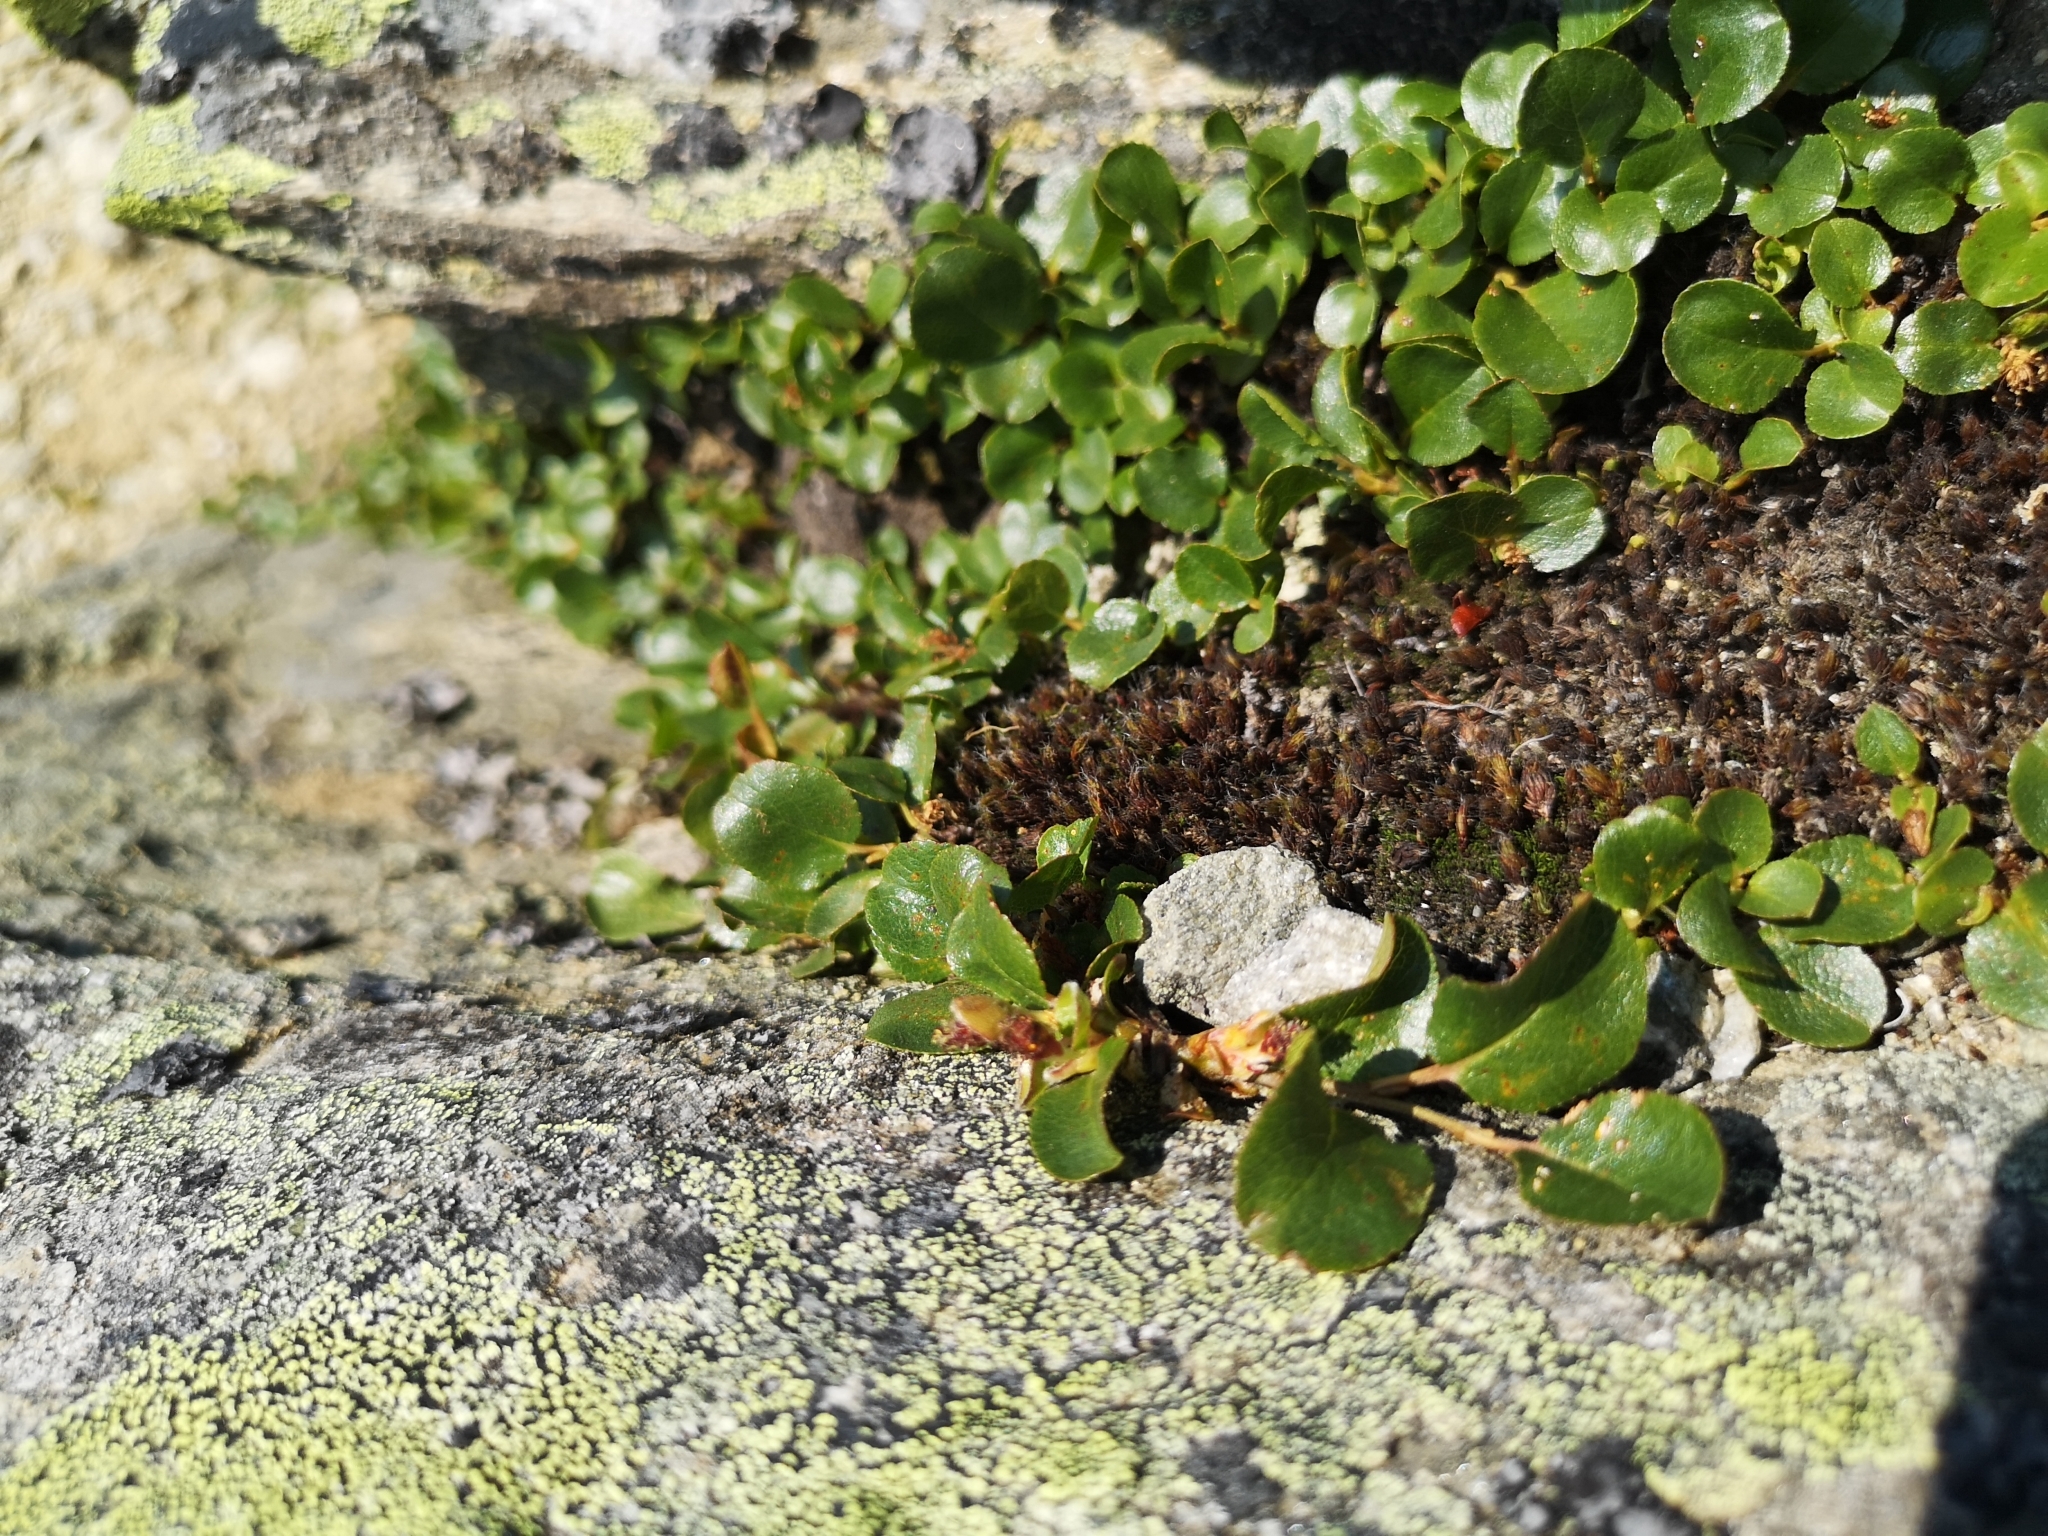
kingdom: Plantae
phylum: Tracheophyta
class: Magnoliopsida
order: Malpighiales
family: Salicaceae
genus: Salix
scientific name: Salix herbacea
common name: Dwarf willow
